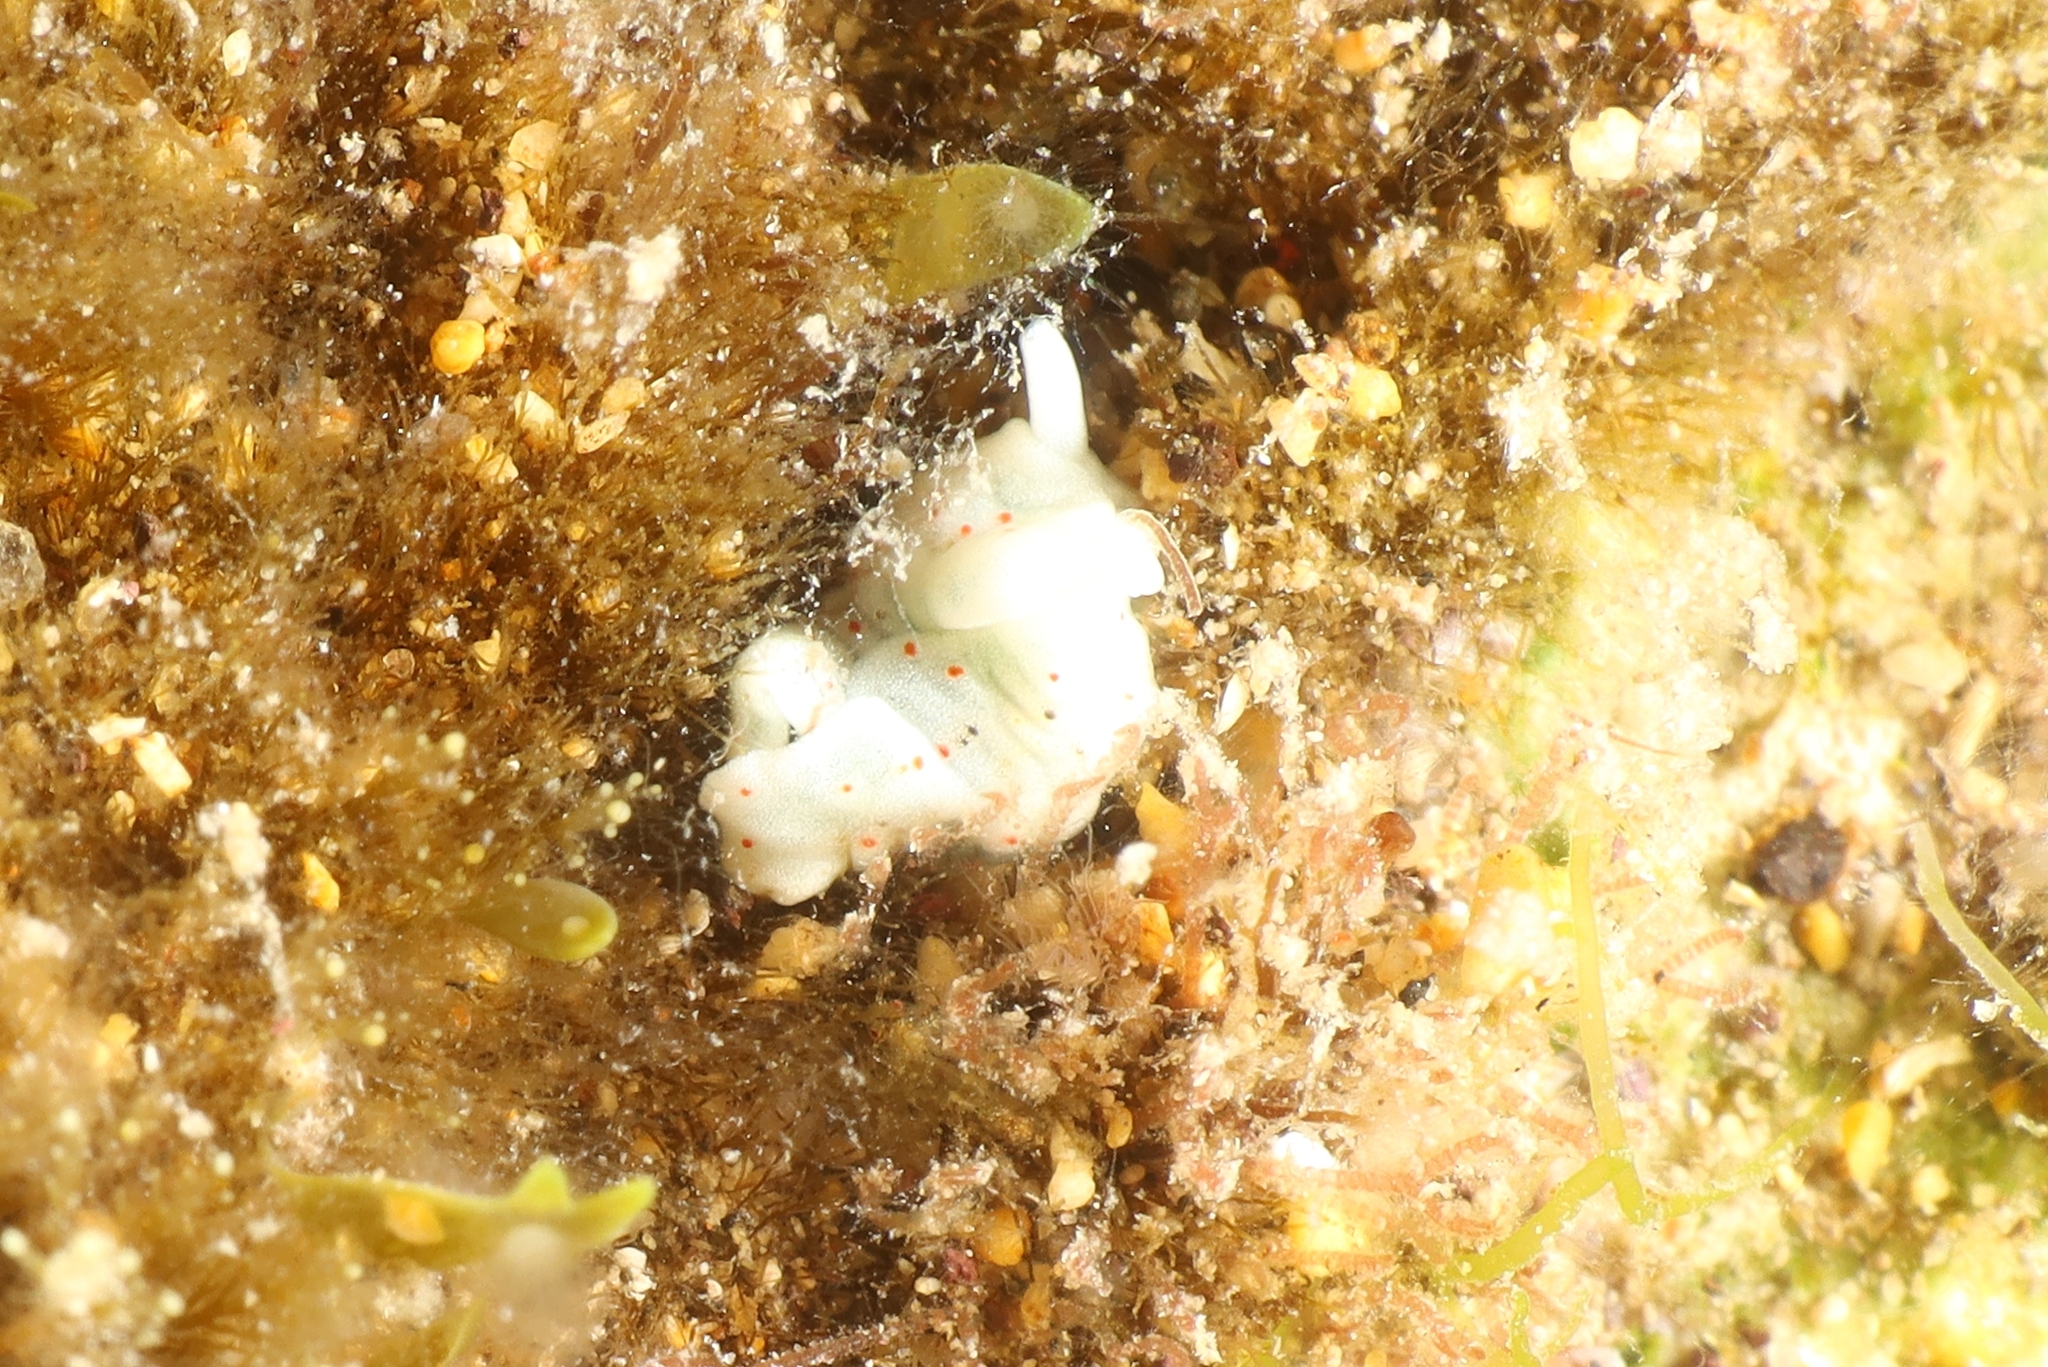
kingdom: Animalia
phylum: Mollusca
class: Gastropoda
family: Plakobranchidae
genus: Elysia
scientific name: Elysia timida
